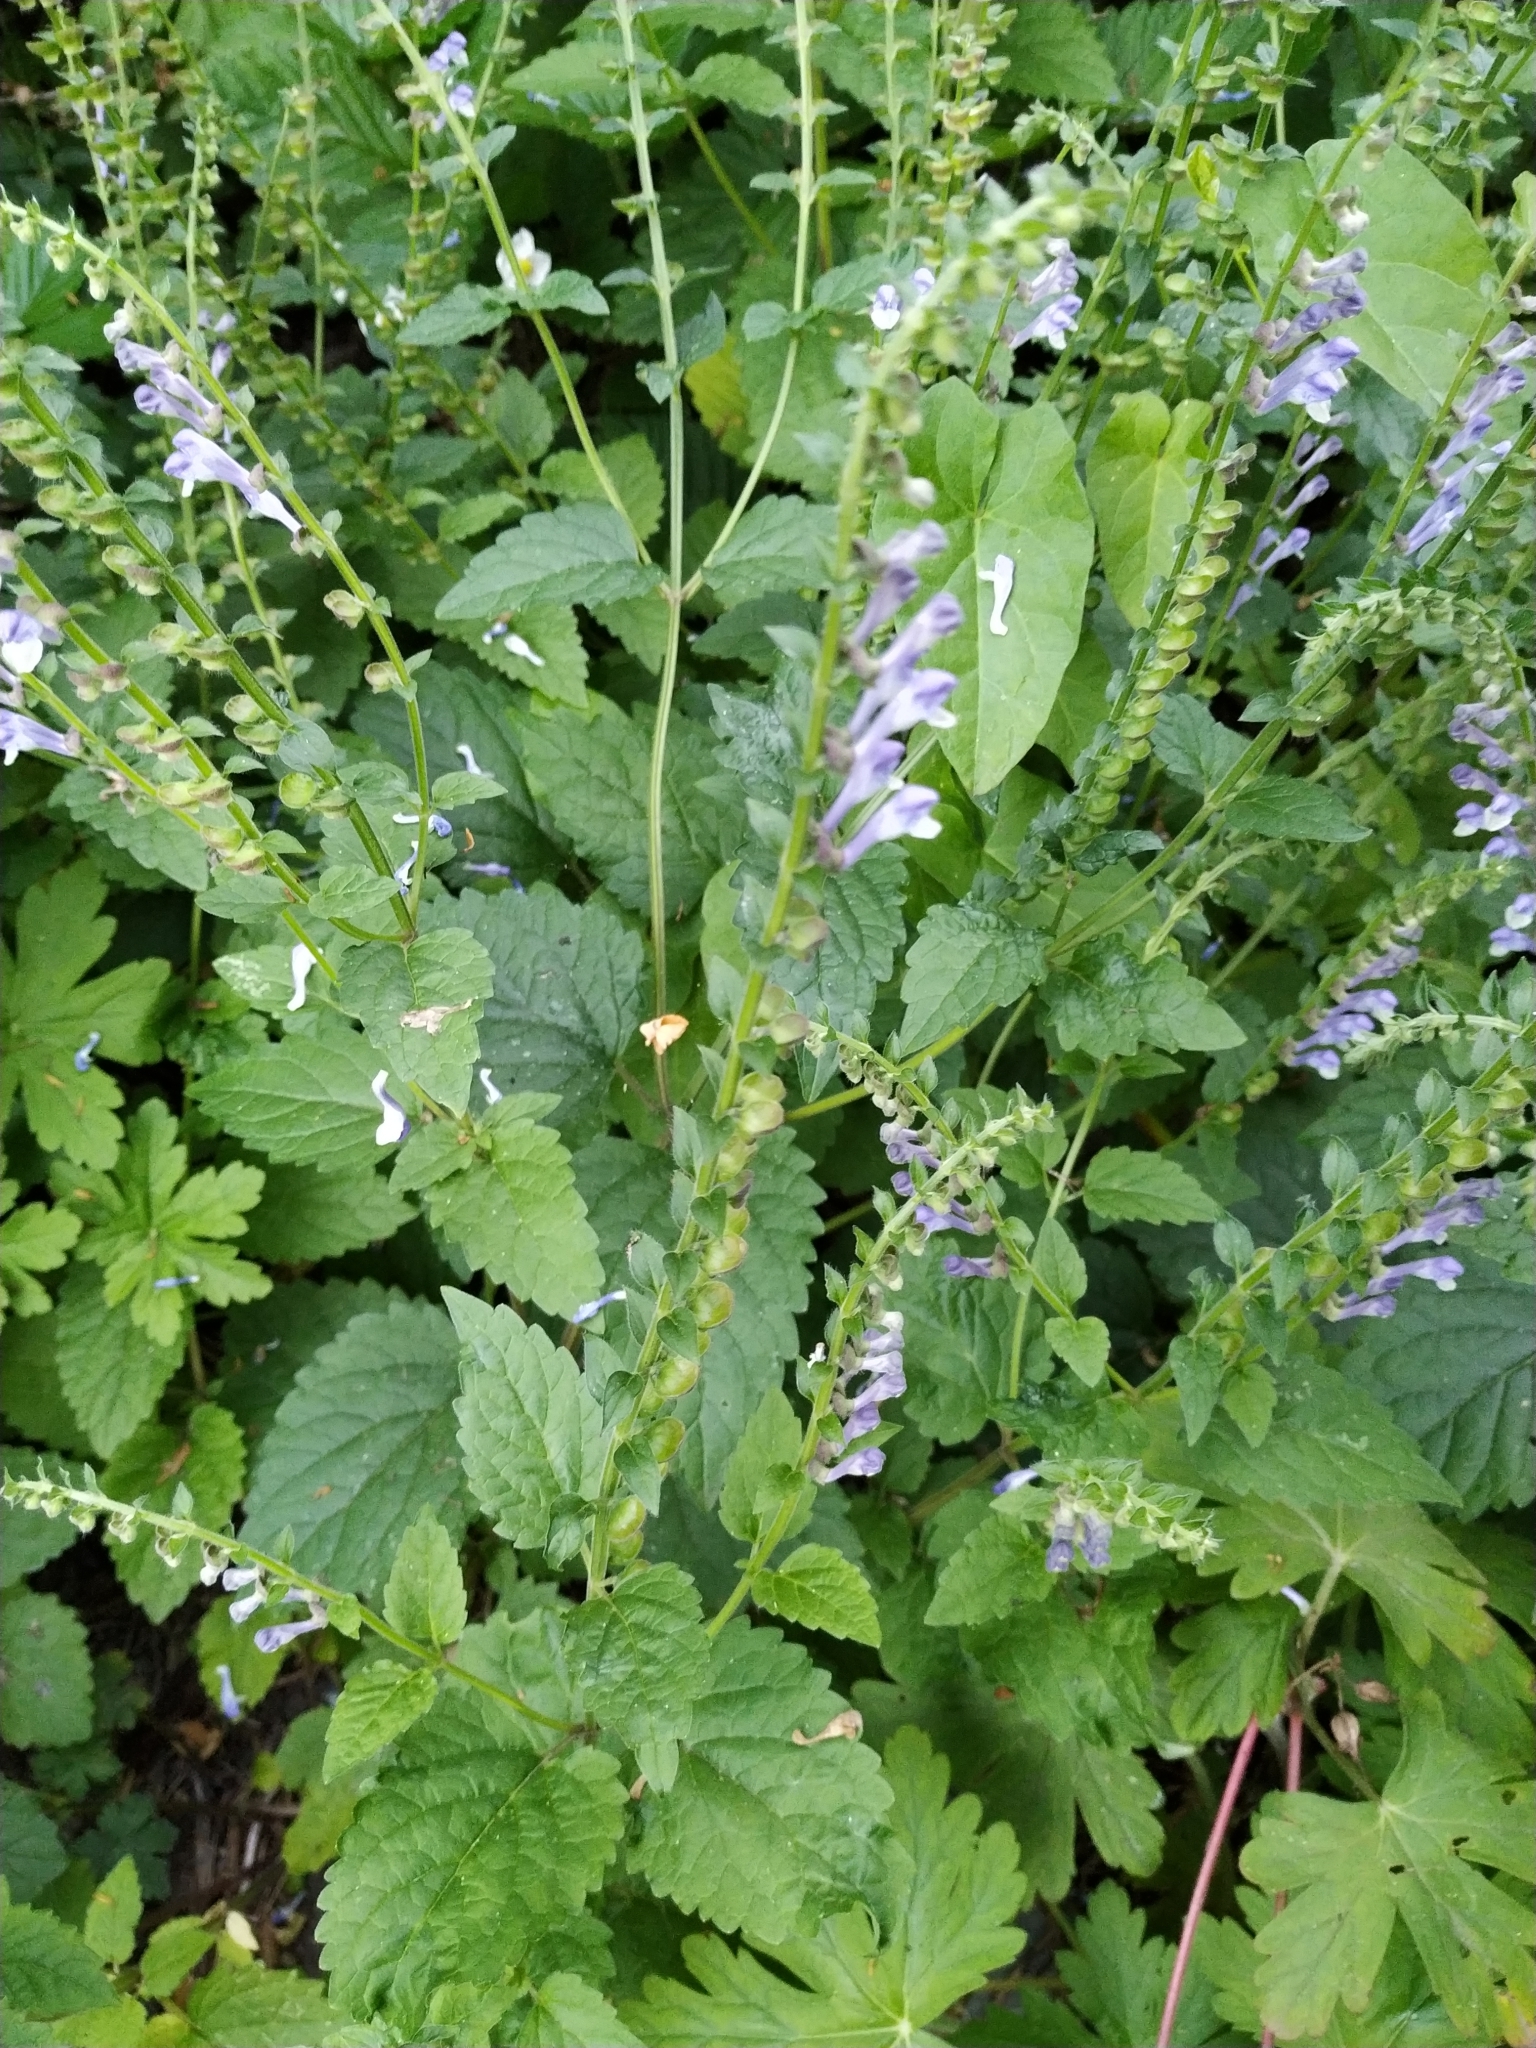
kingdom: Plantae
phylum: Tracheophyta
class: Magnoliopsida
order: Lamiales
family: Lamiaceae
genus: Scutellaria
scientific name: Scutellaria altissima
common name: Somerset skullcap
